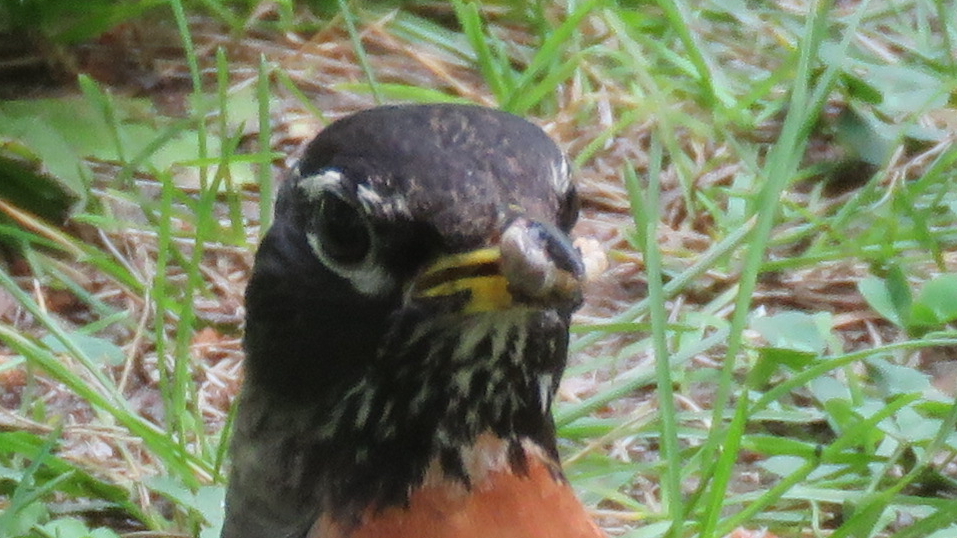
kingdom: Animalia
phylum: Chordata
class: Aves
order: Passeriformes
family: Turdidae
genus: Turdus
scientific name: Turdus migratorius
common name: American robin
